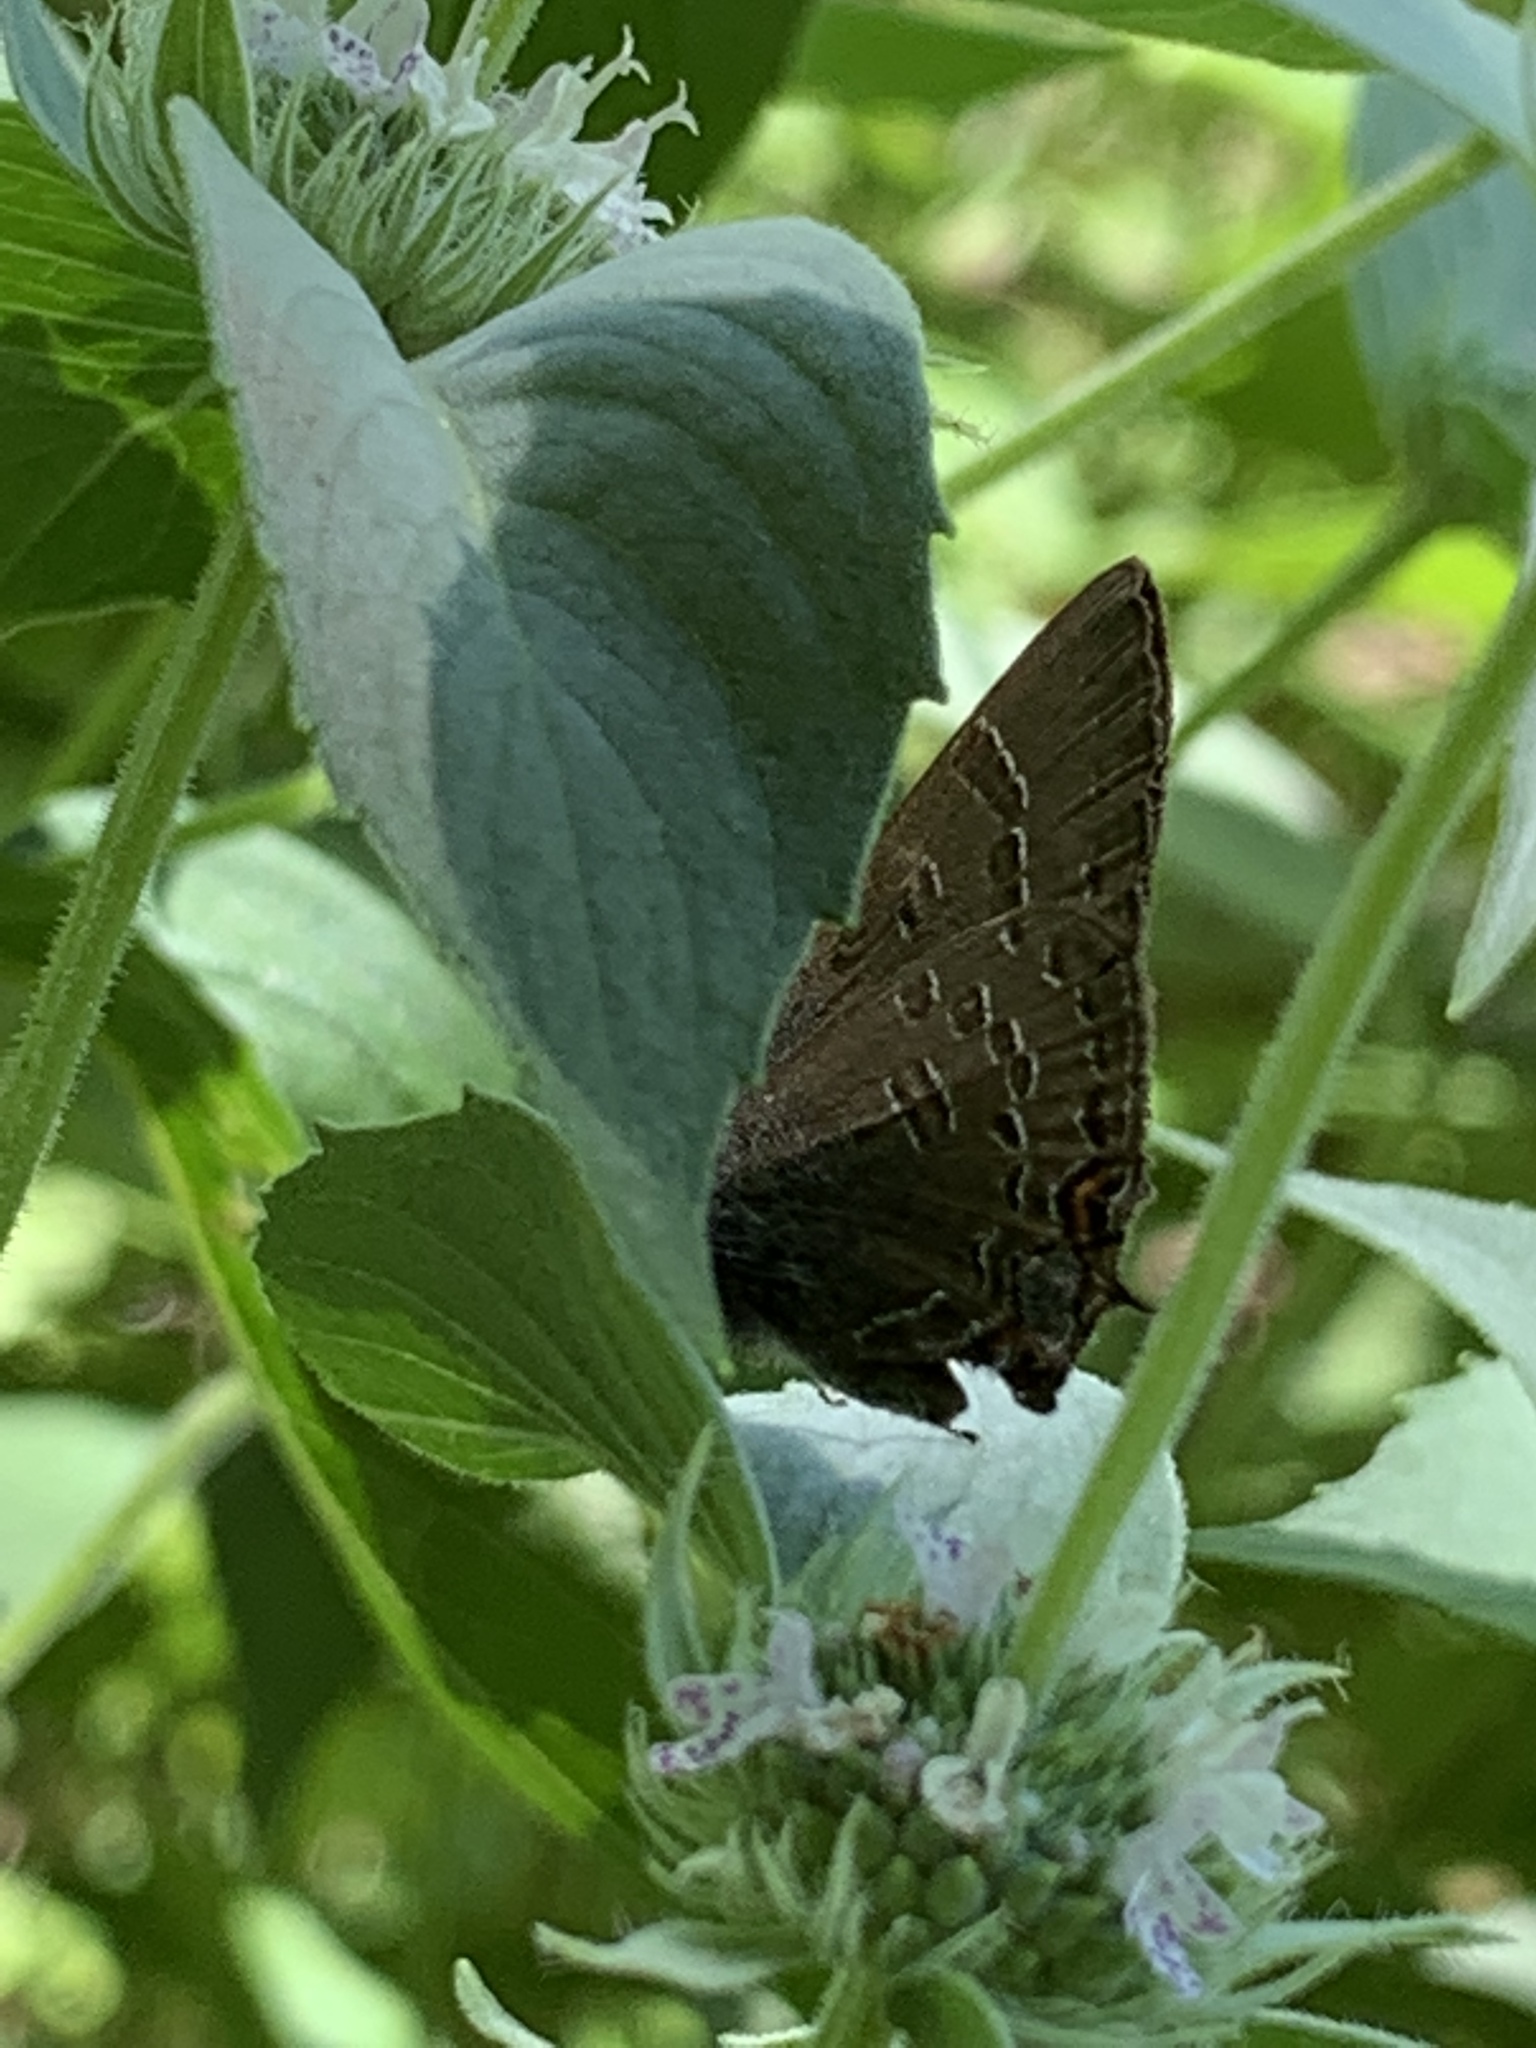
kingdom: Animalia
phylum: Arthropoda
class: Insecta
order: Lepidoptera
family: Lycaenidae
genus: Satyrium
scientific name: Satyrium calanus
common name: Banded hairstreak
